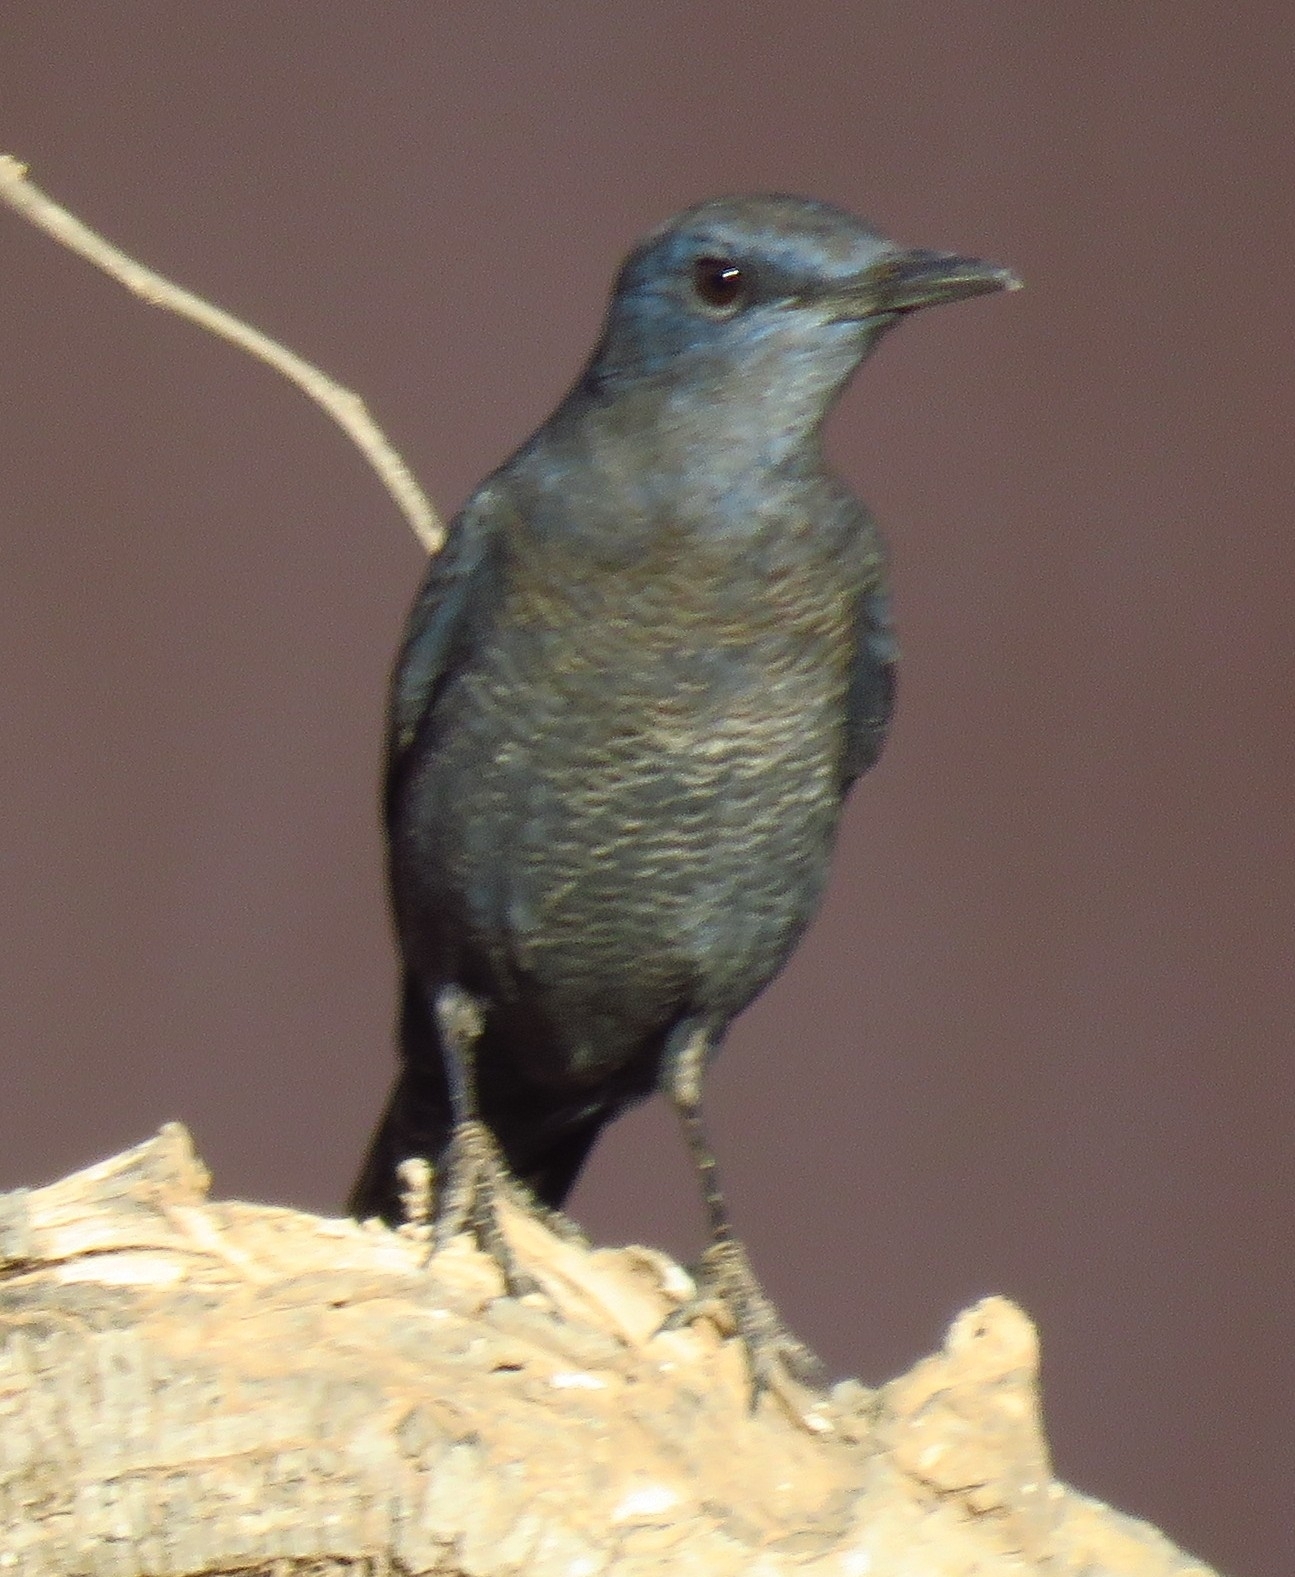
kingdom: Animalia
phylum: Chordata
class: Aves
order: Passeriformes
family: Muscicapidae
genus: Monticola
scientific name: Monticola solitarius
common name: Blue rock thrush
